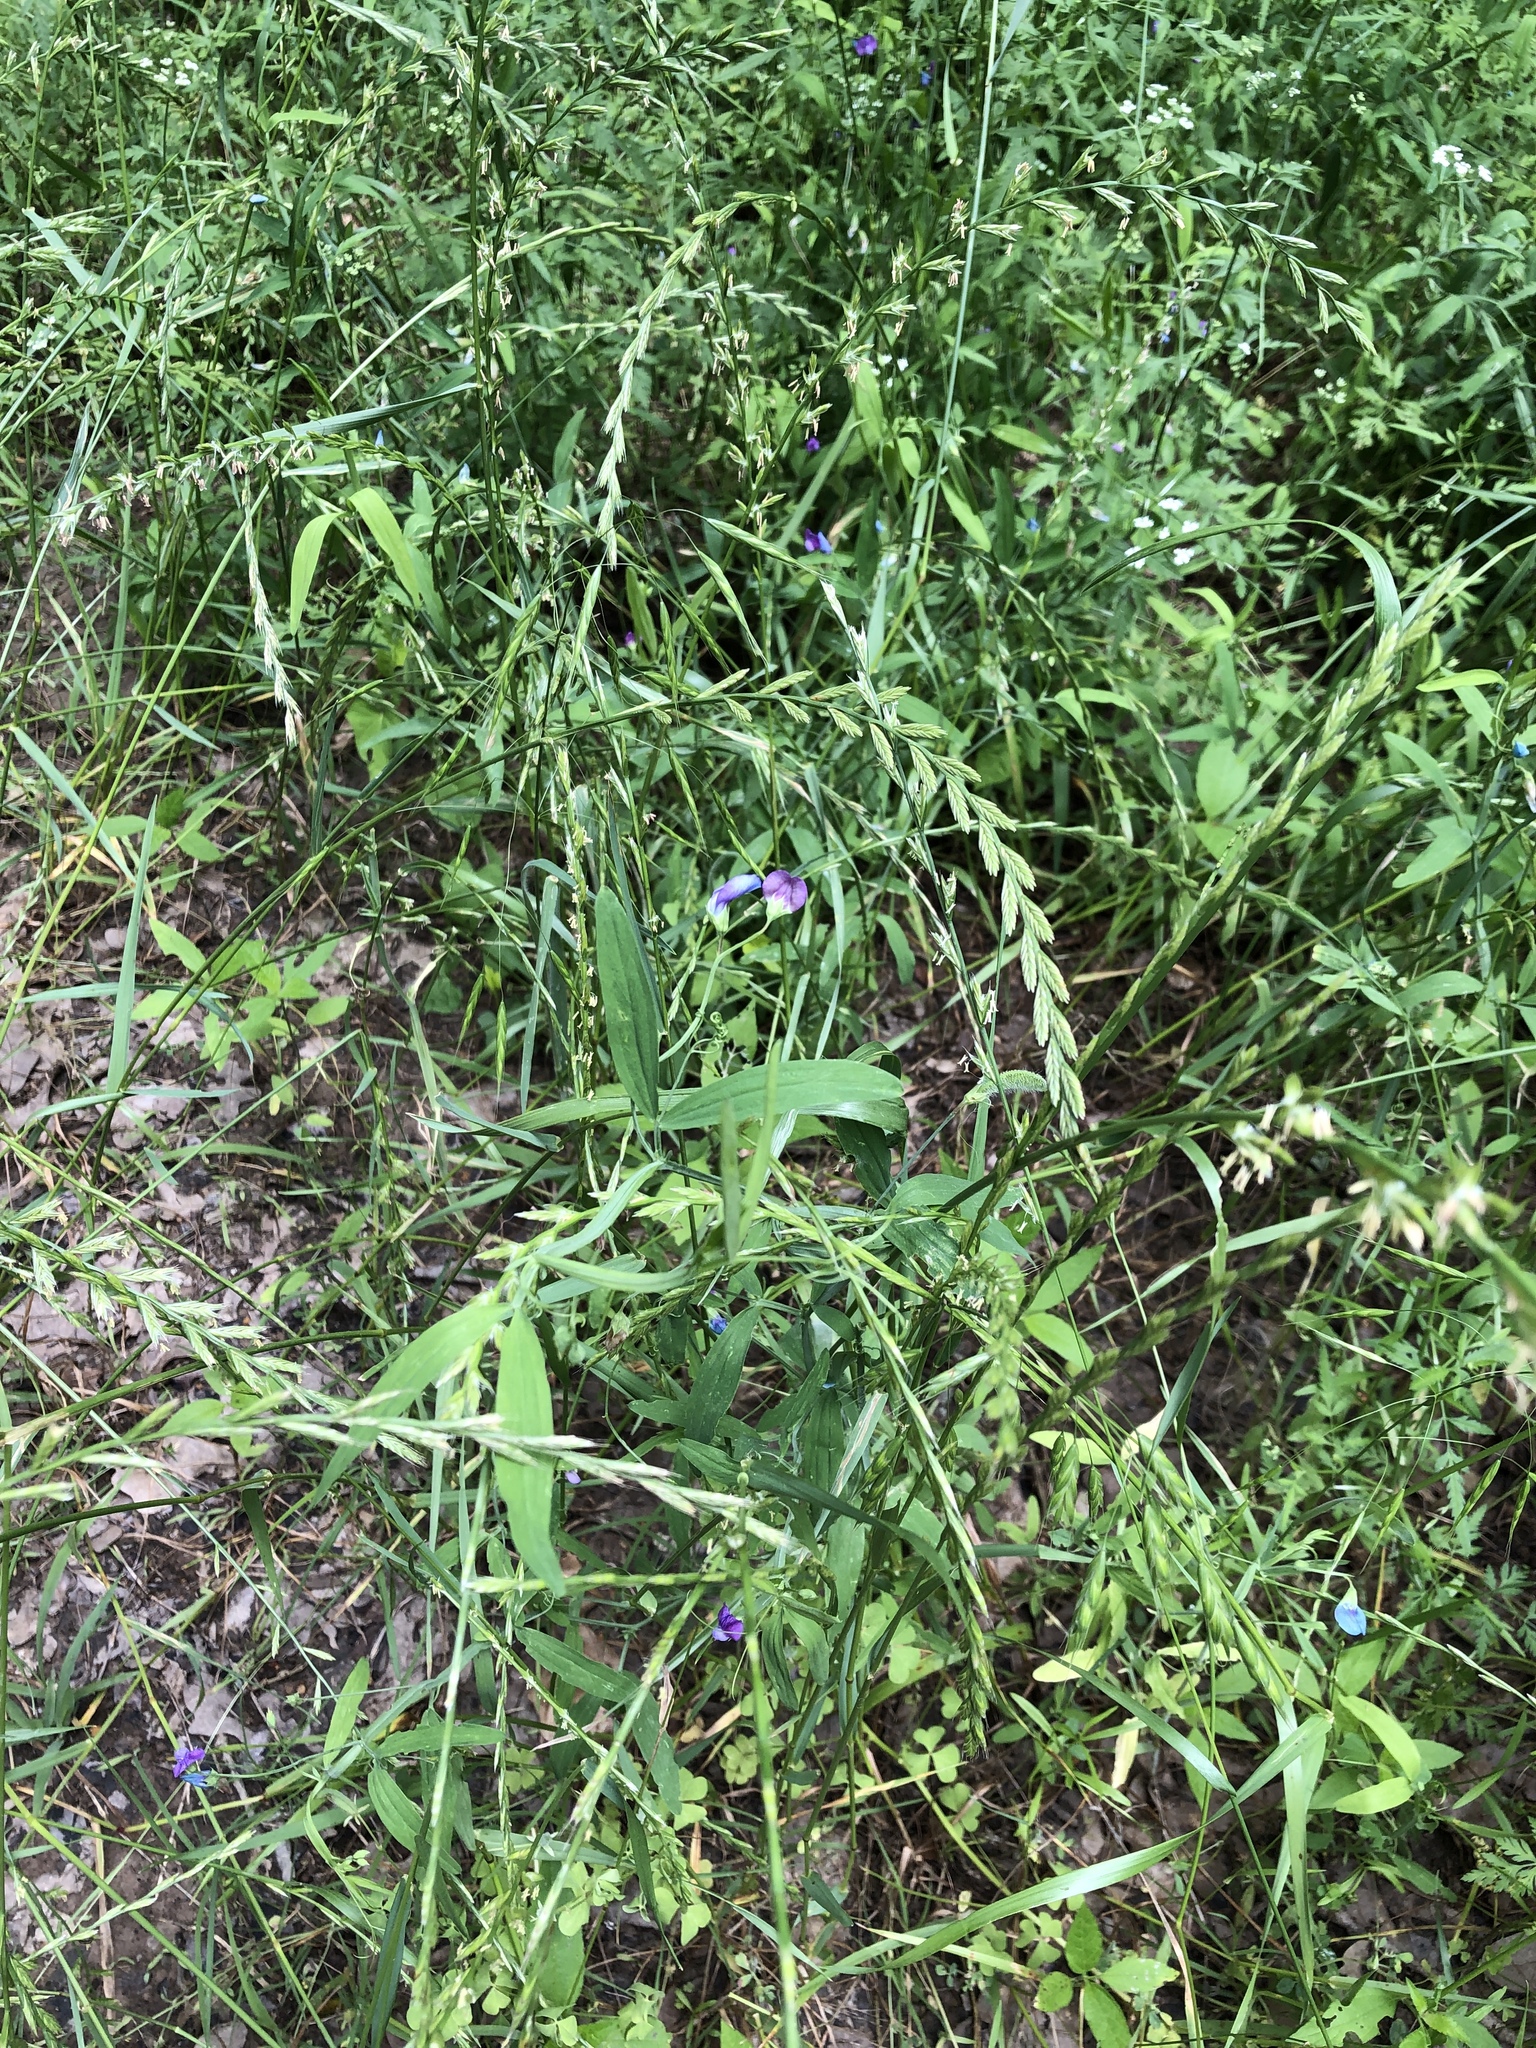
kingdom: Plantae
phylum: Tracheophyta
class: Magnoliopsida
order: Fabales
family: Fabaceae
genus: Lathyrus
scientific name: Lathyrus hirsutus
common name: Hairy vetchling
